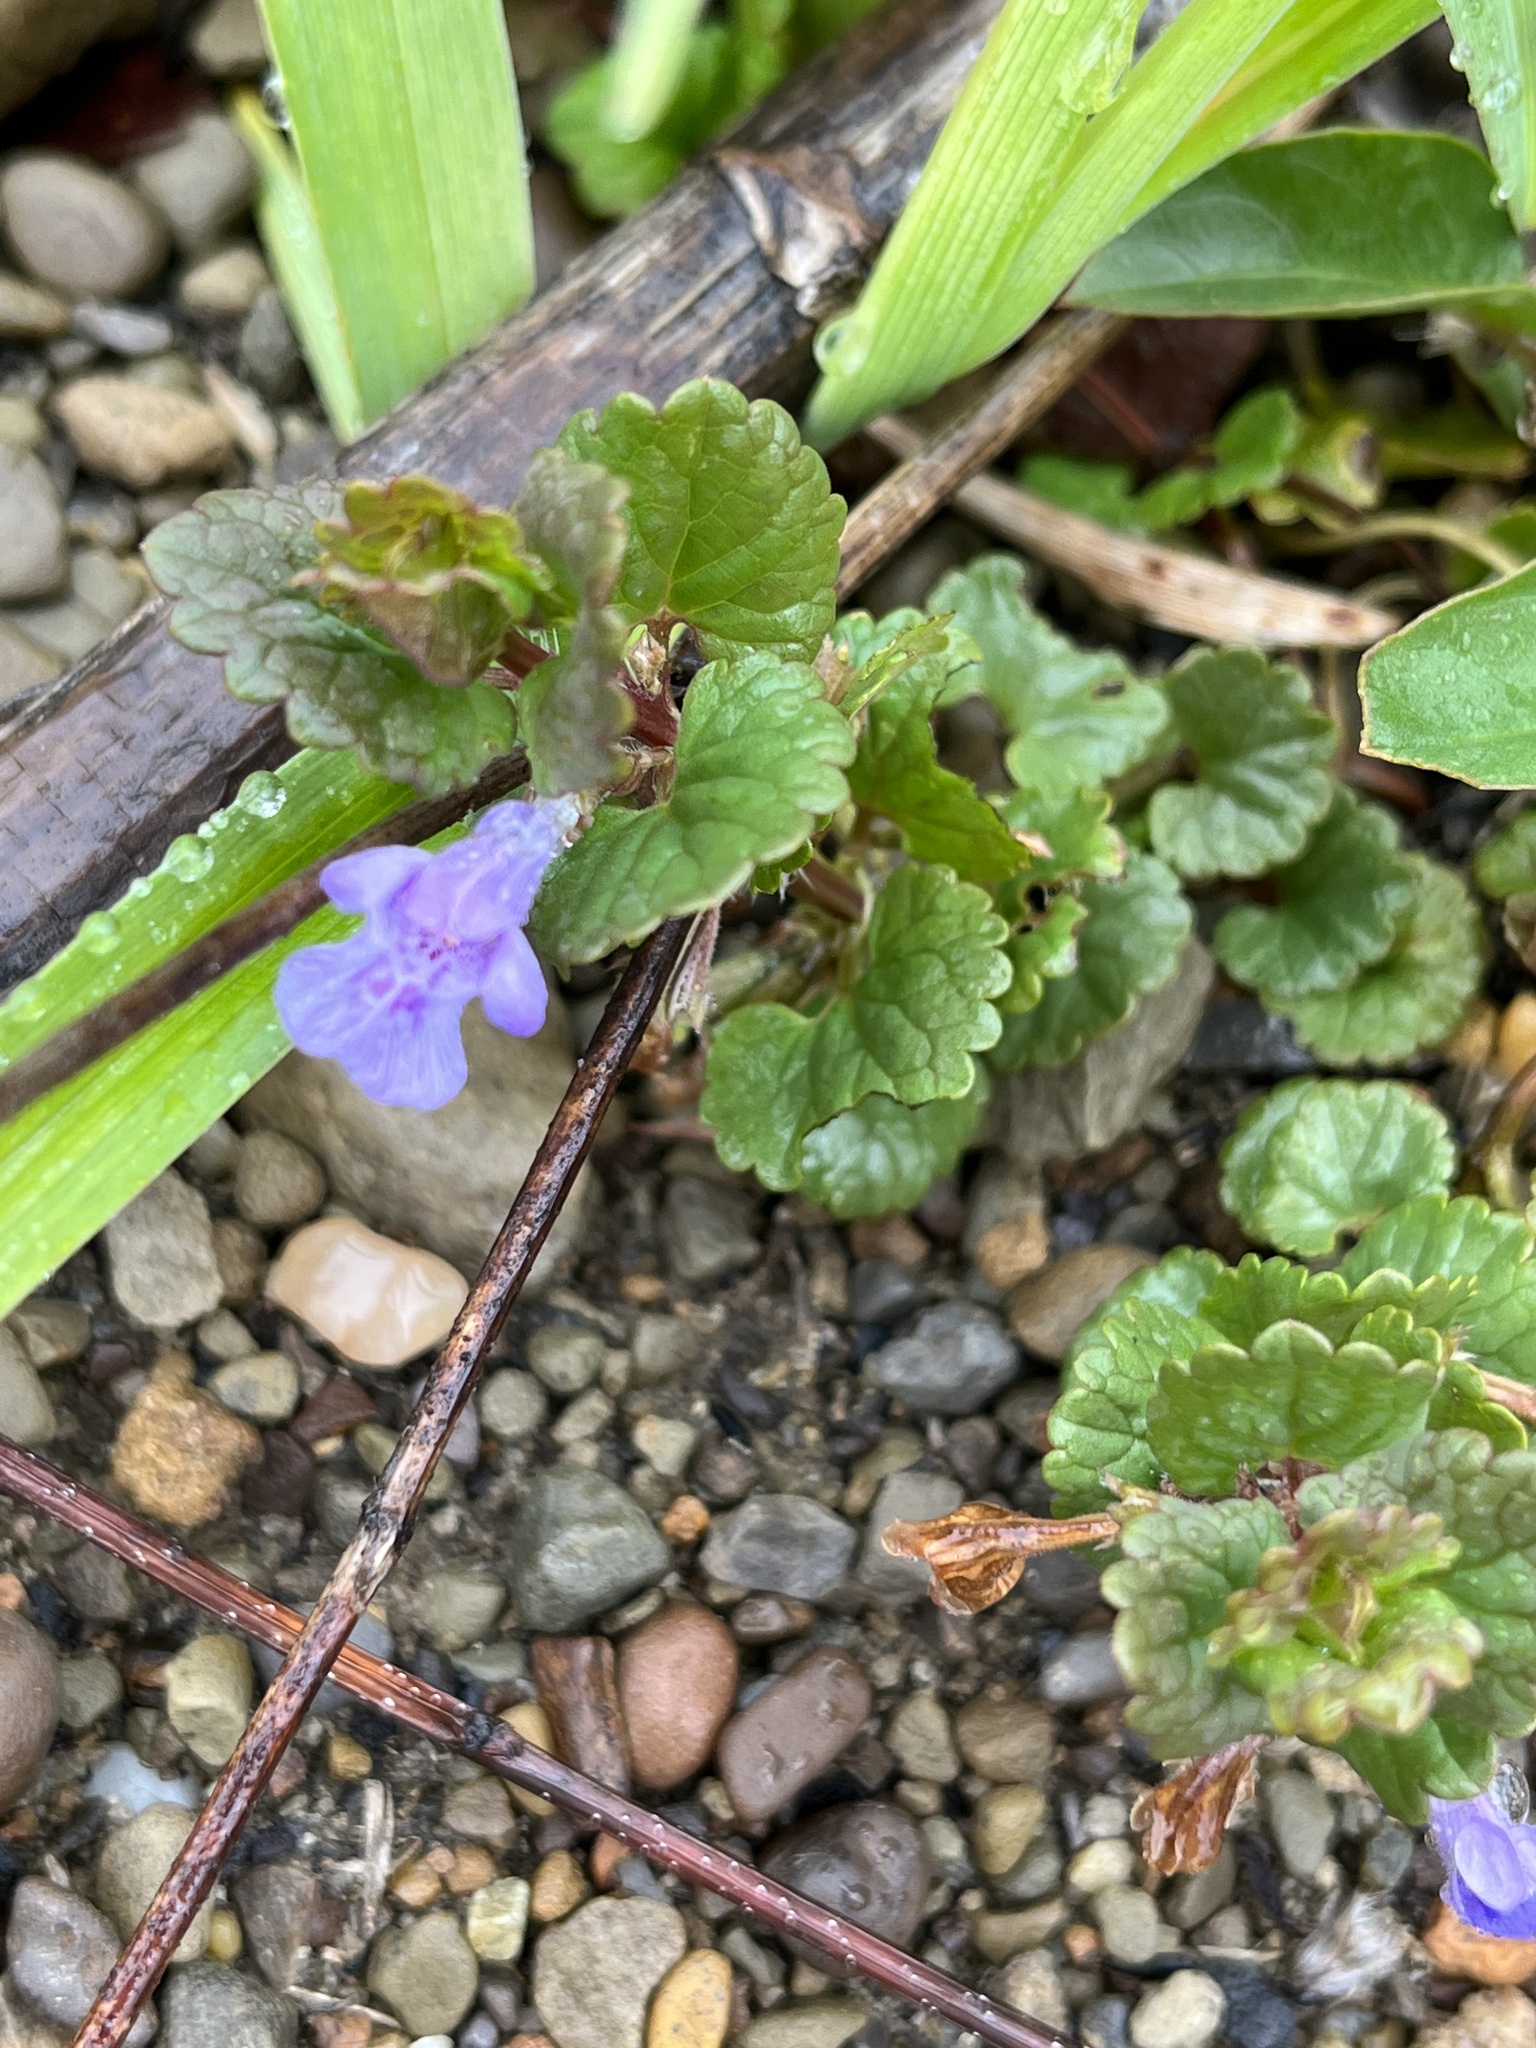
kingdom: Plantae
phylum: Tracheophyta
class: Magnoliopsida
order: Lamiales
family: Lamiaceae
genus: Glechoma
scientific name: Glechoma hederacea
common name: Ground ivy
